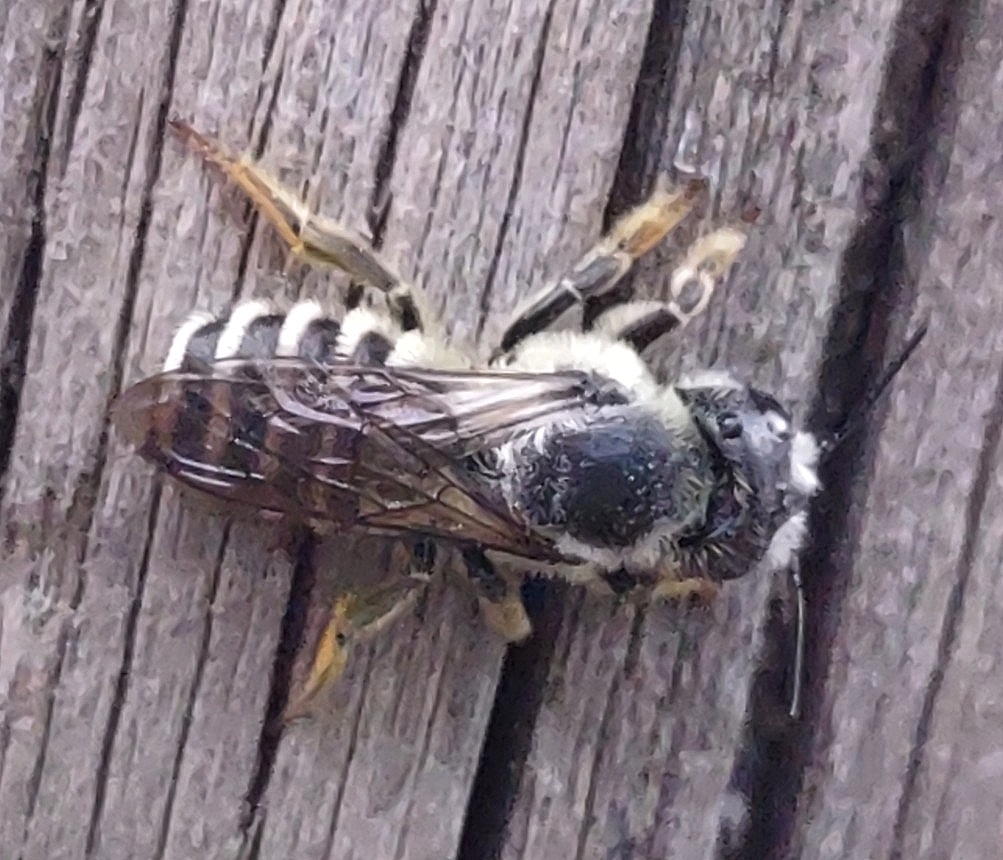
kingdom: Animalia
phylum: Arthropoda
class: Insecta
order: Hymenoptera
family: Megachilidae
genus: Megachile
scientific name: Megachile pugnata
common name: Pugnacious leafcutter bee
